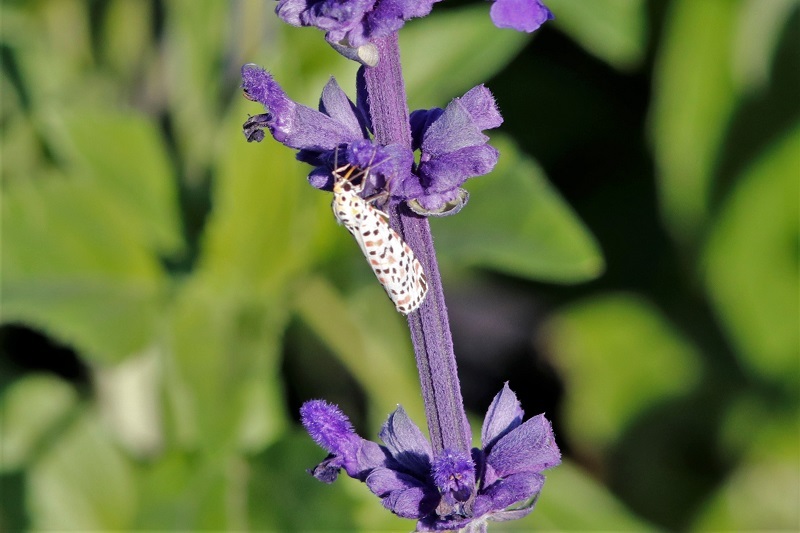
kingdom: Animalia
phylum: Arthropoda
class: Insecta
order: Lepidoptera
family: Erebidae
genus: Utetheisa
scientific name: Utetheisa pulchella
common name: Crimson speckled
